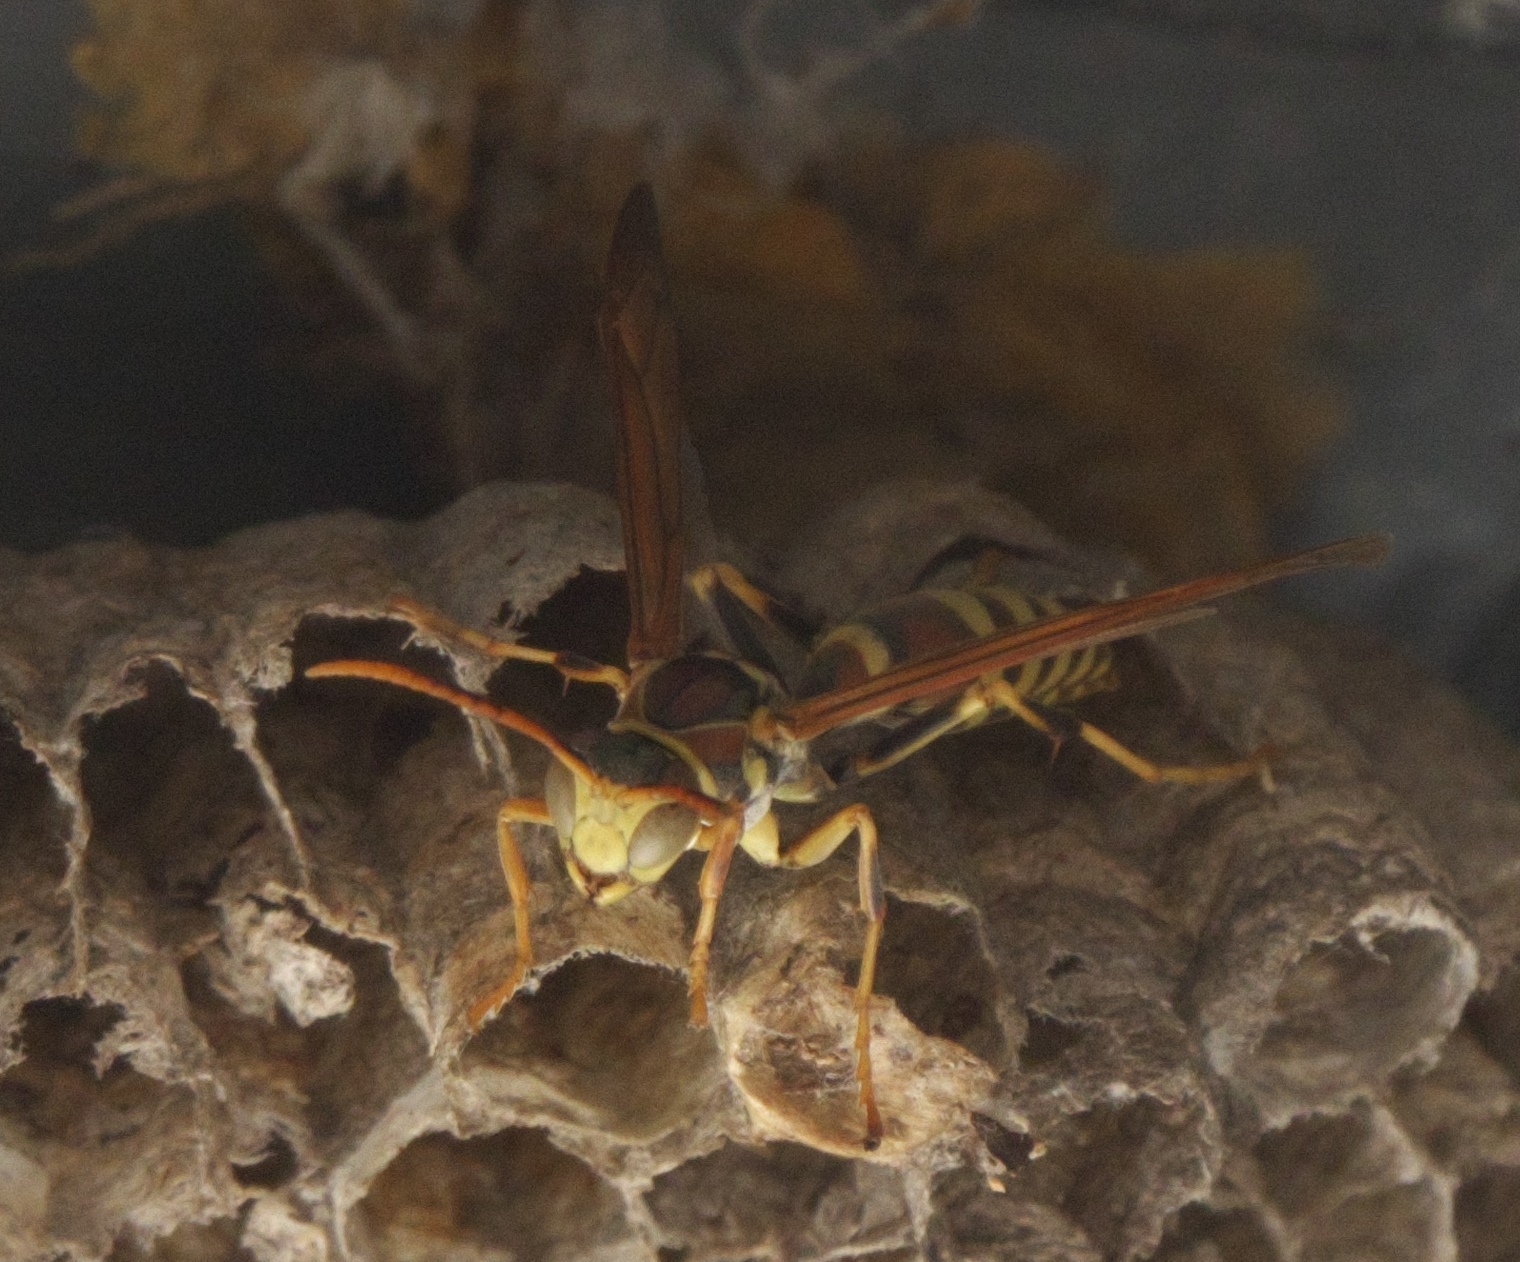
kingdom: Animalia
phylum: Arthropoda
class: Insecta
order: Hymenoptera
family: Eumenidae
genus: Polistes
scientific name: Polistes exclamans
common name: Paper wasp
